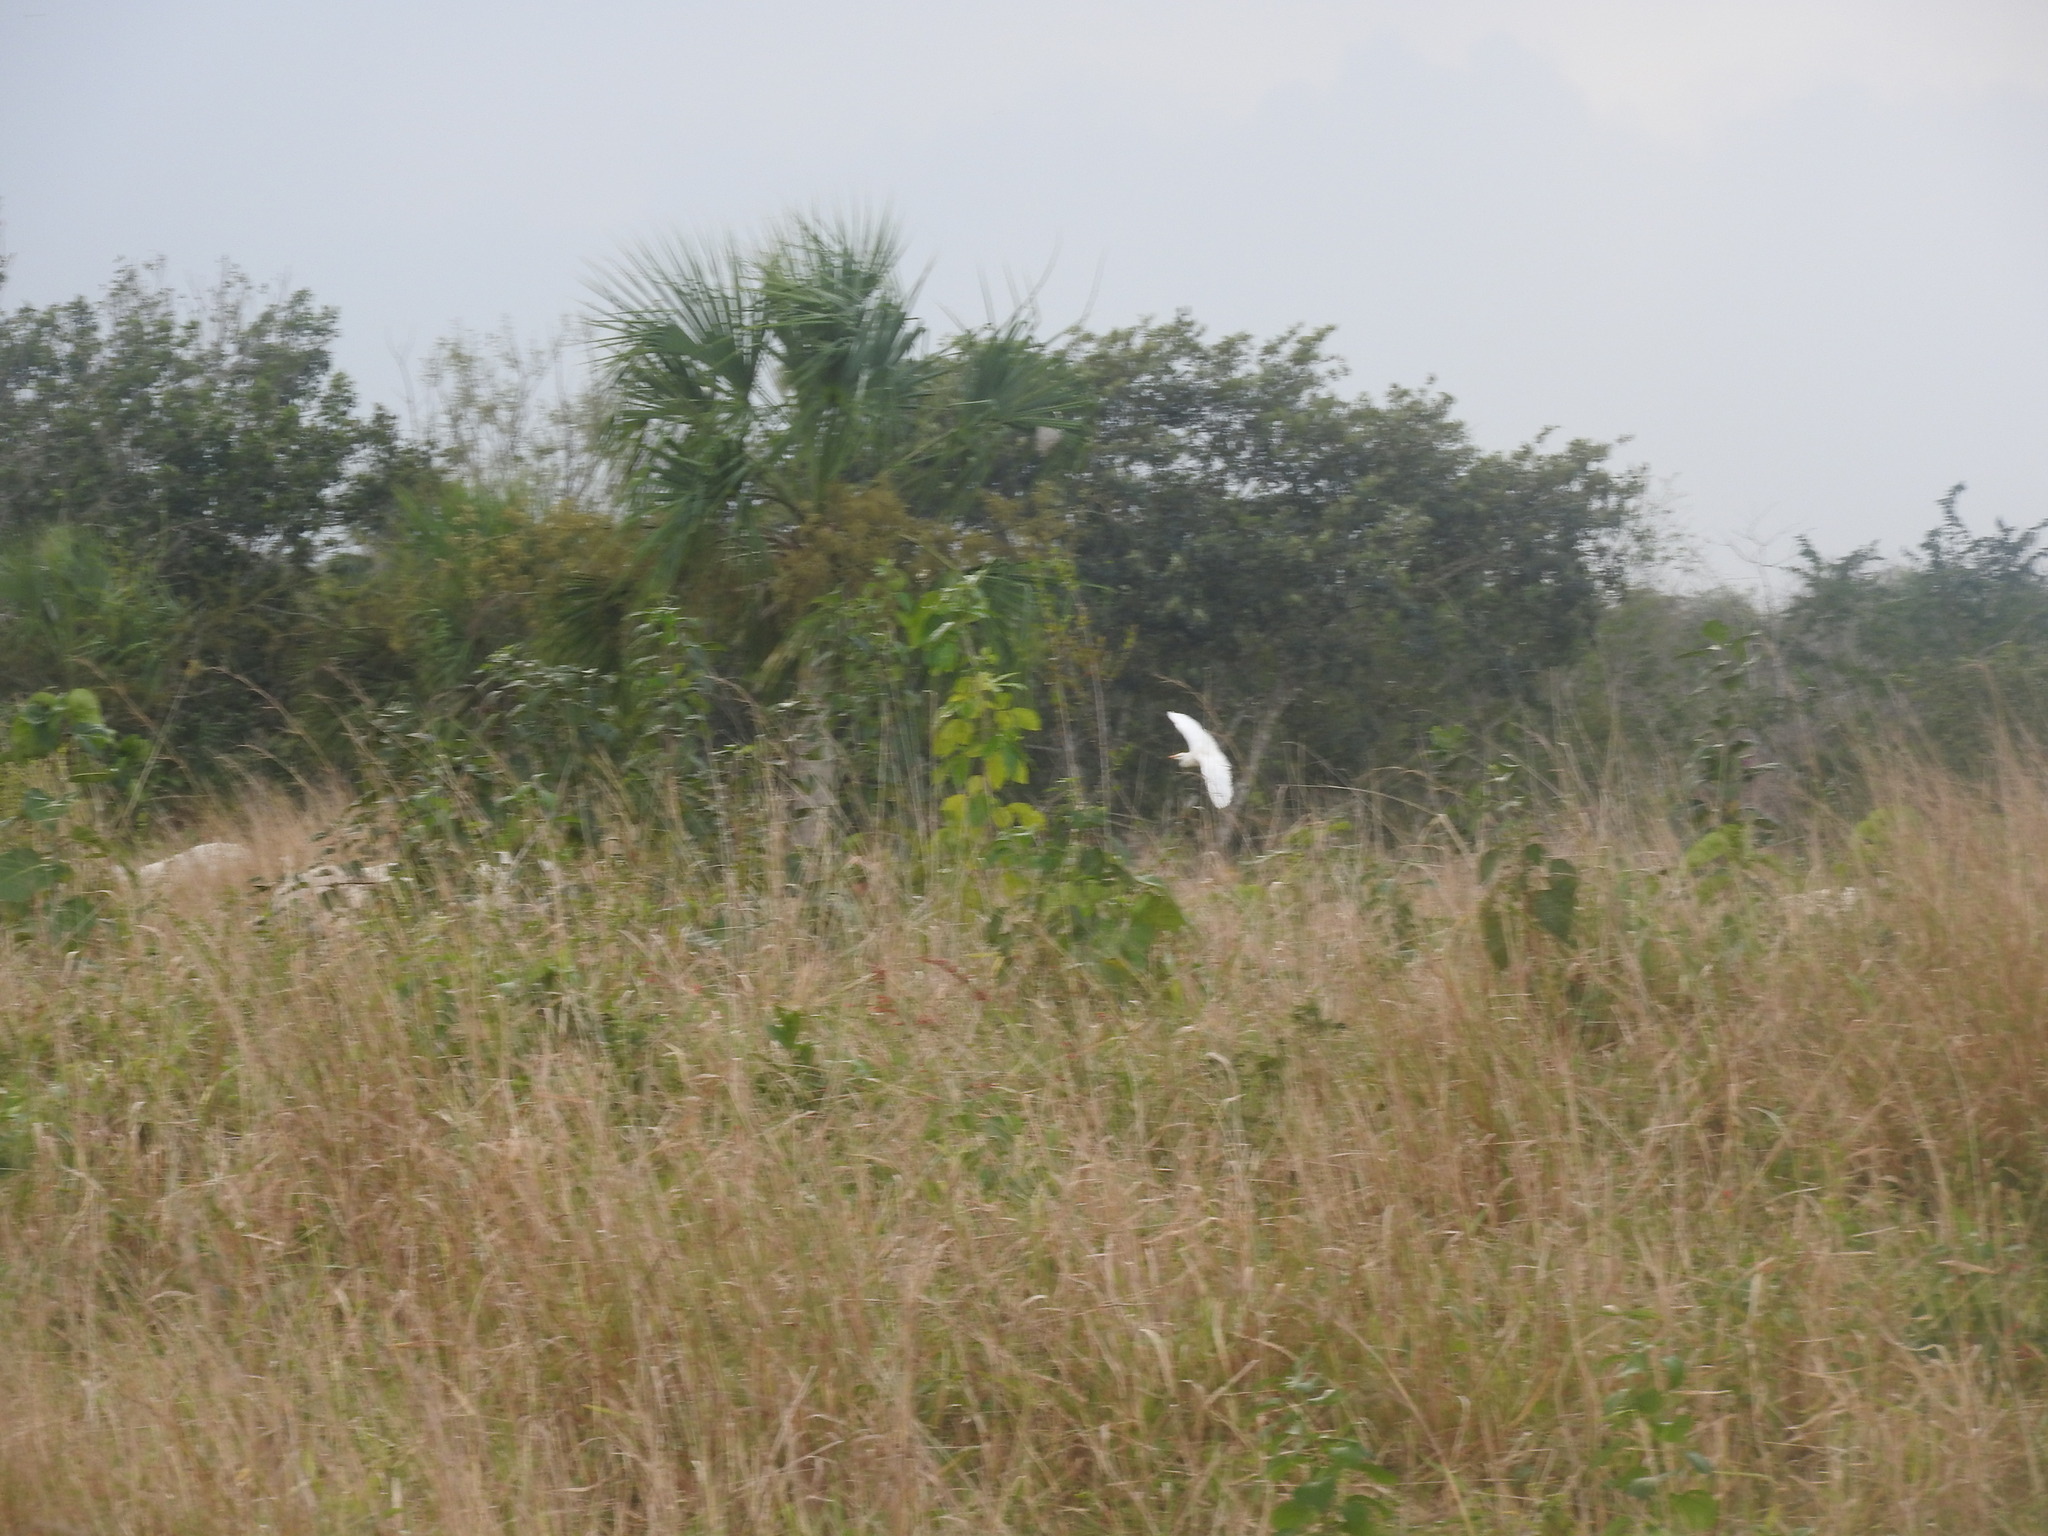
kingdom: Animalia
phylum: Chordata
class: Aves
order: Pelecaniformes
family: Ardeidae
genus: Ardea
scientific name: Ardea alba
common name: Great egret
